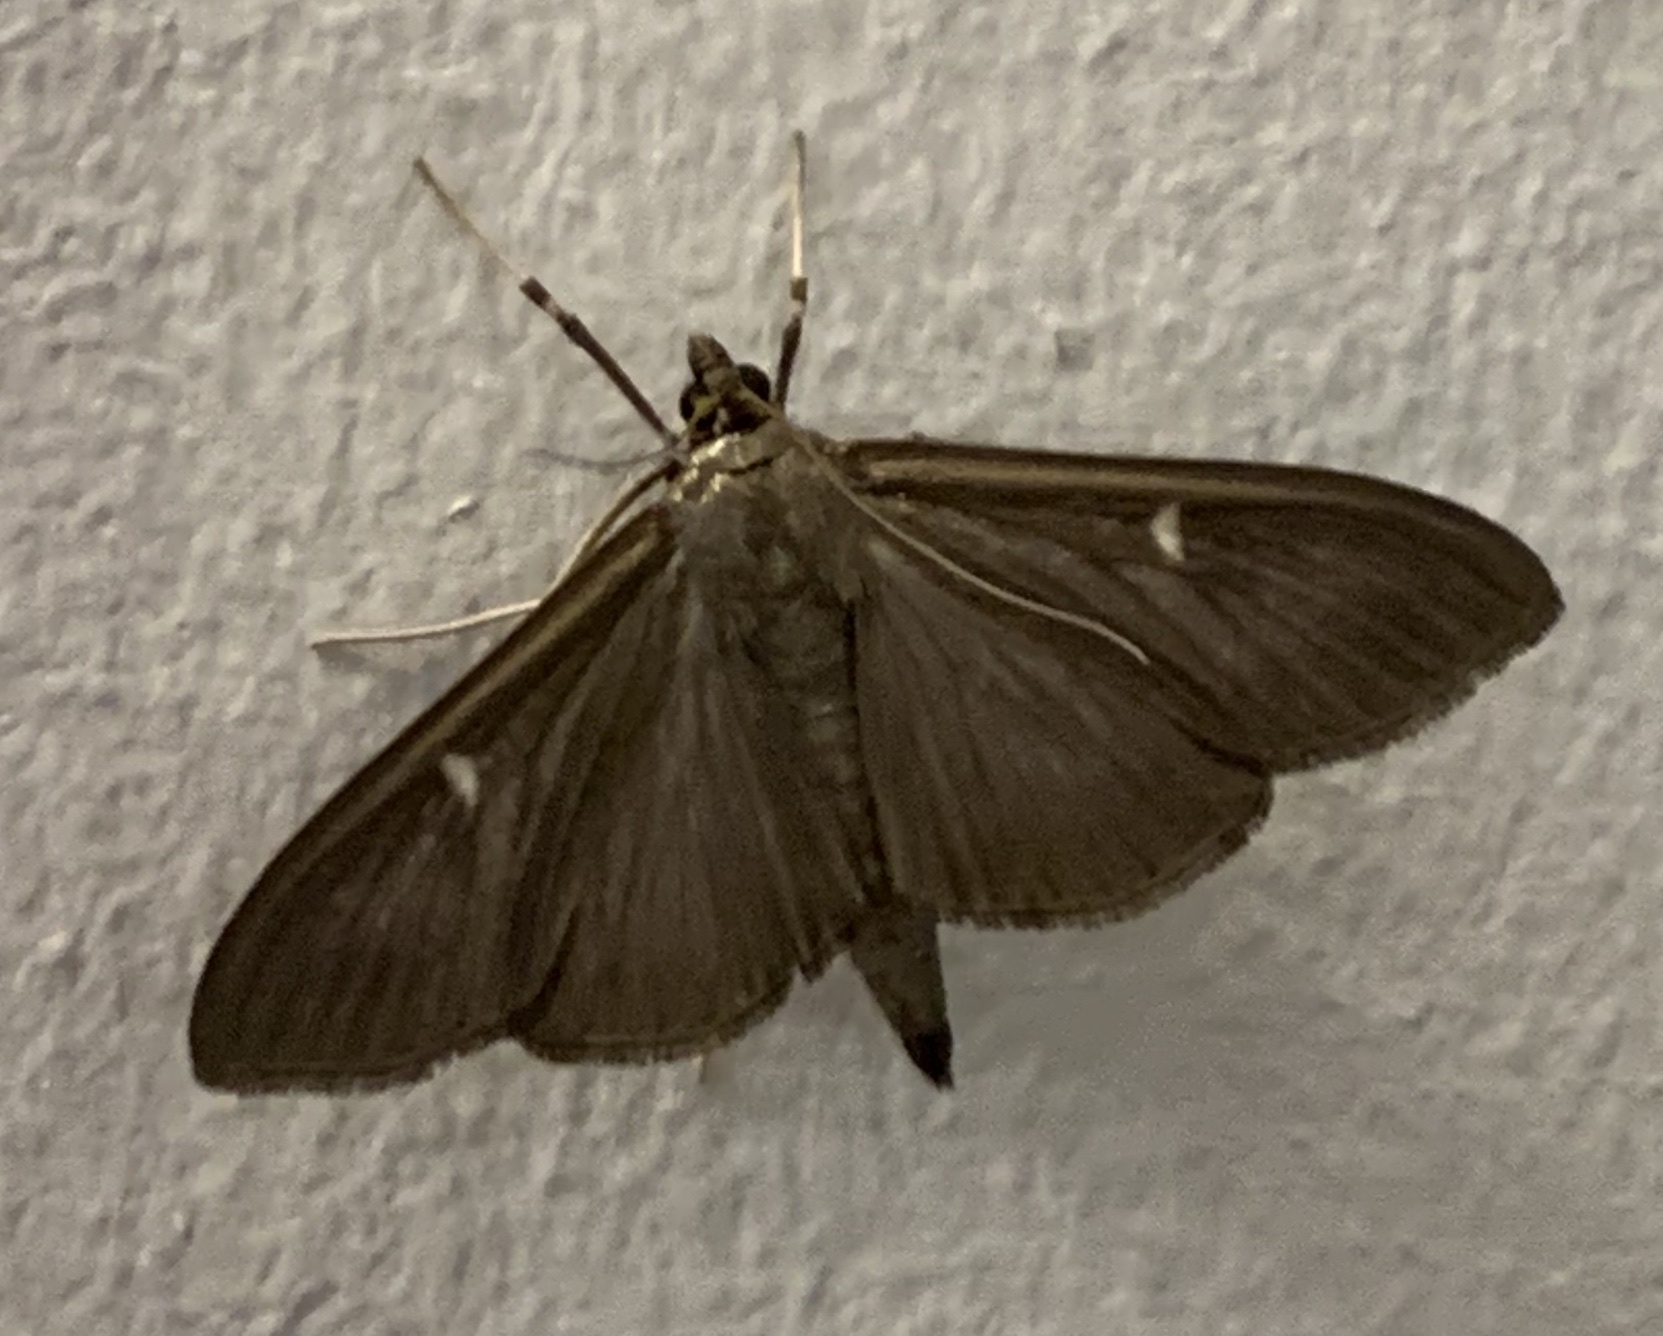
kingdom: Animalia
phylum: Arthropoda
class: Insecta
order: Lepidoptera
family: Crambidae
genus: Cydalima
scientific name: Cydalima perspectalis
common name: Box tree moth
